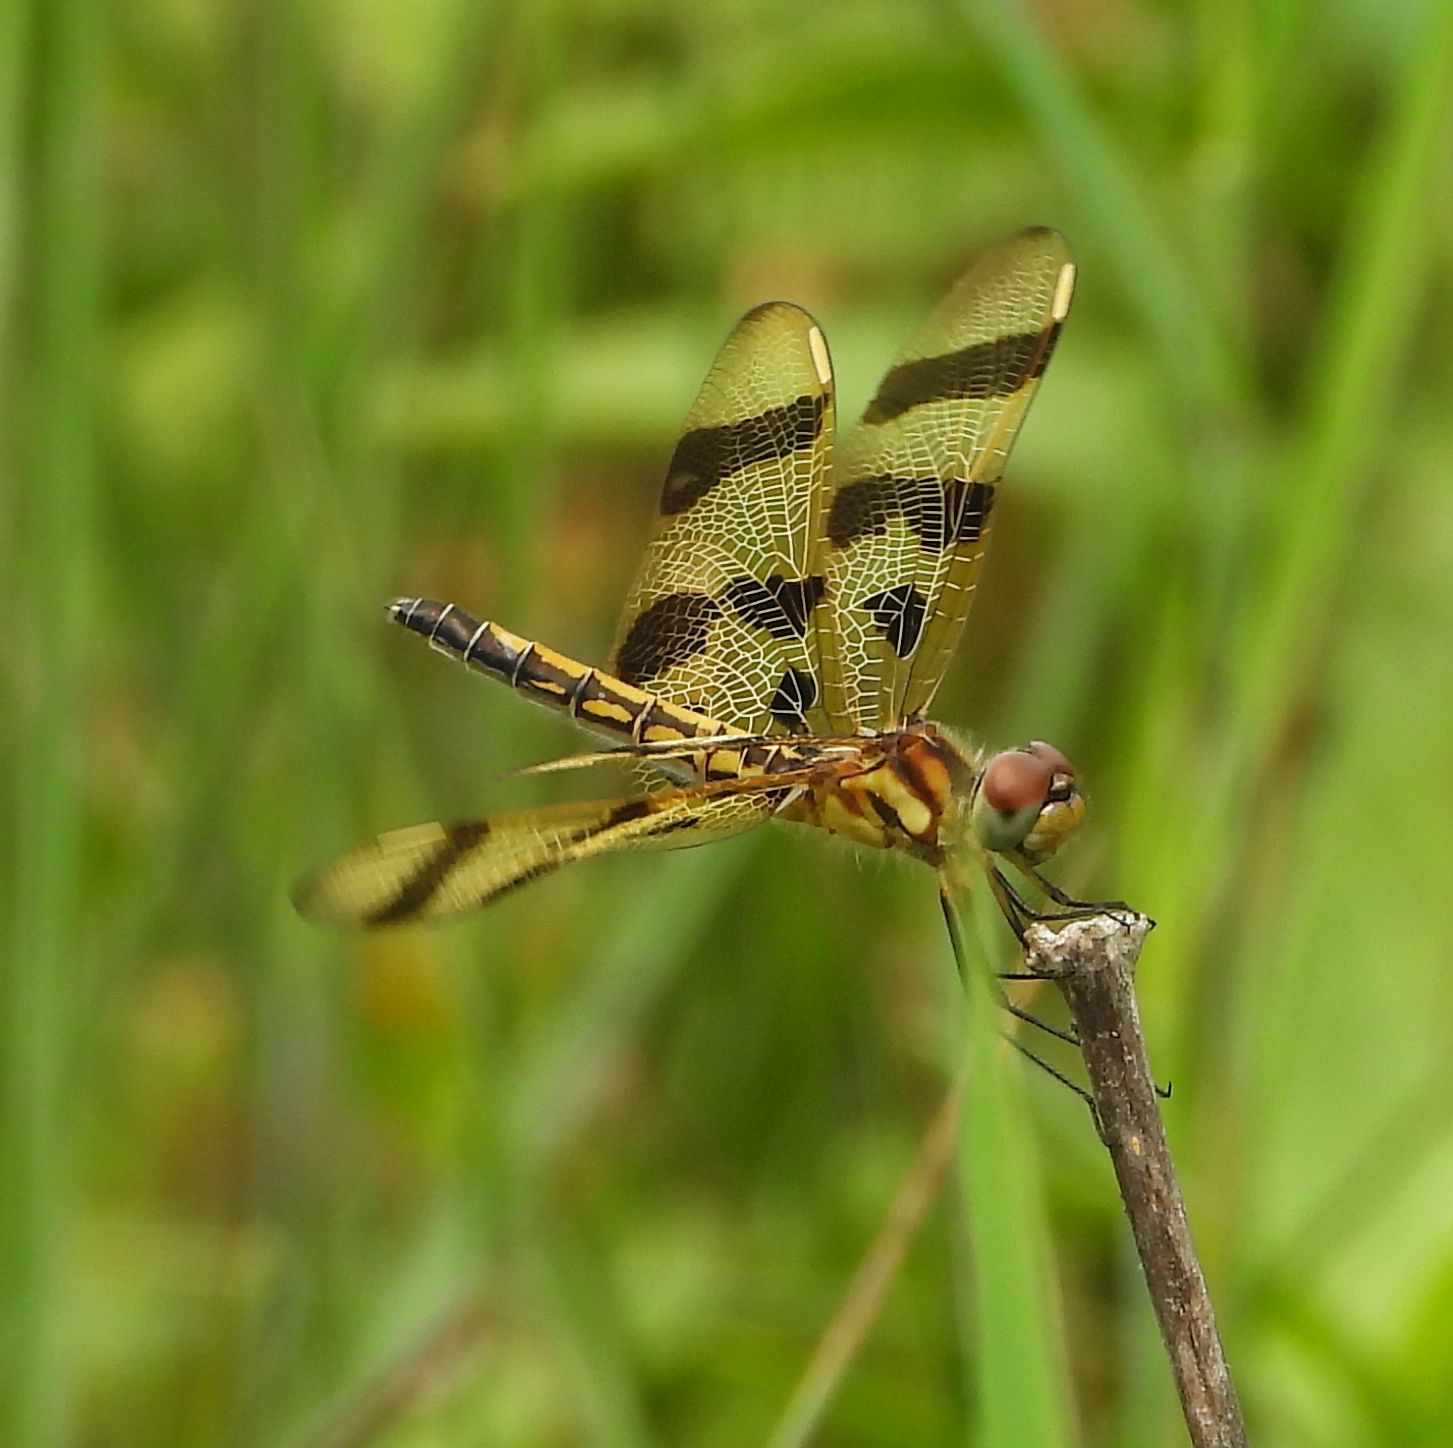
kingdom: Animalia
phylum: Arthropoda
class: Insecta
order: Odonata
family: Libellulidae
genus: Celithemis
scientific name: Celithemis eponina
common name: Halloween pennant
